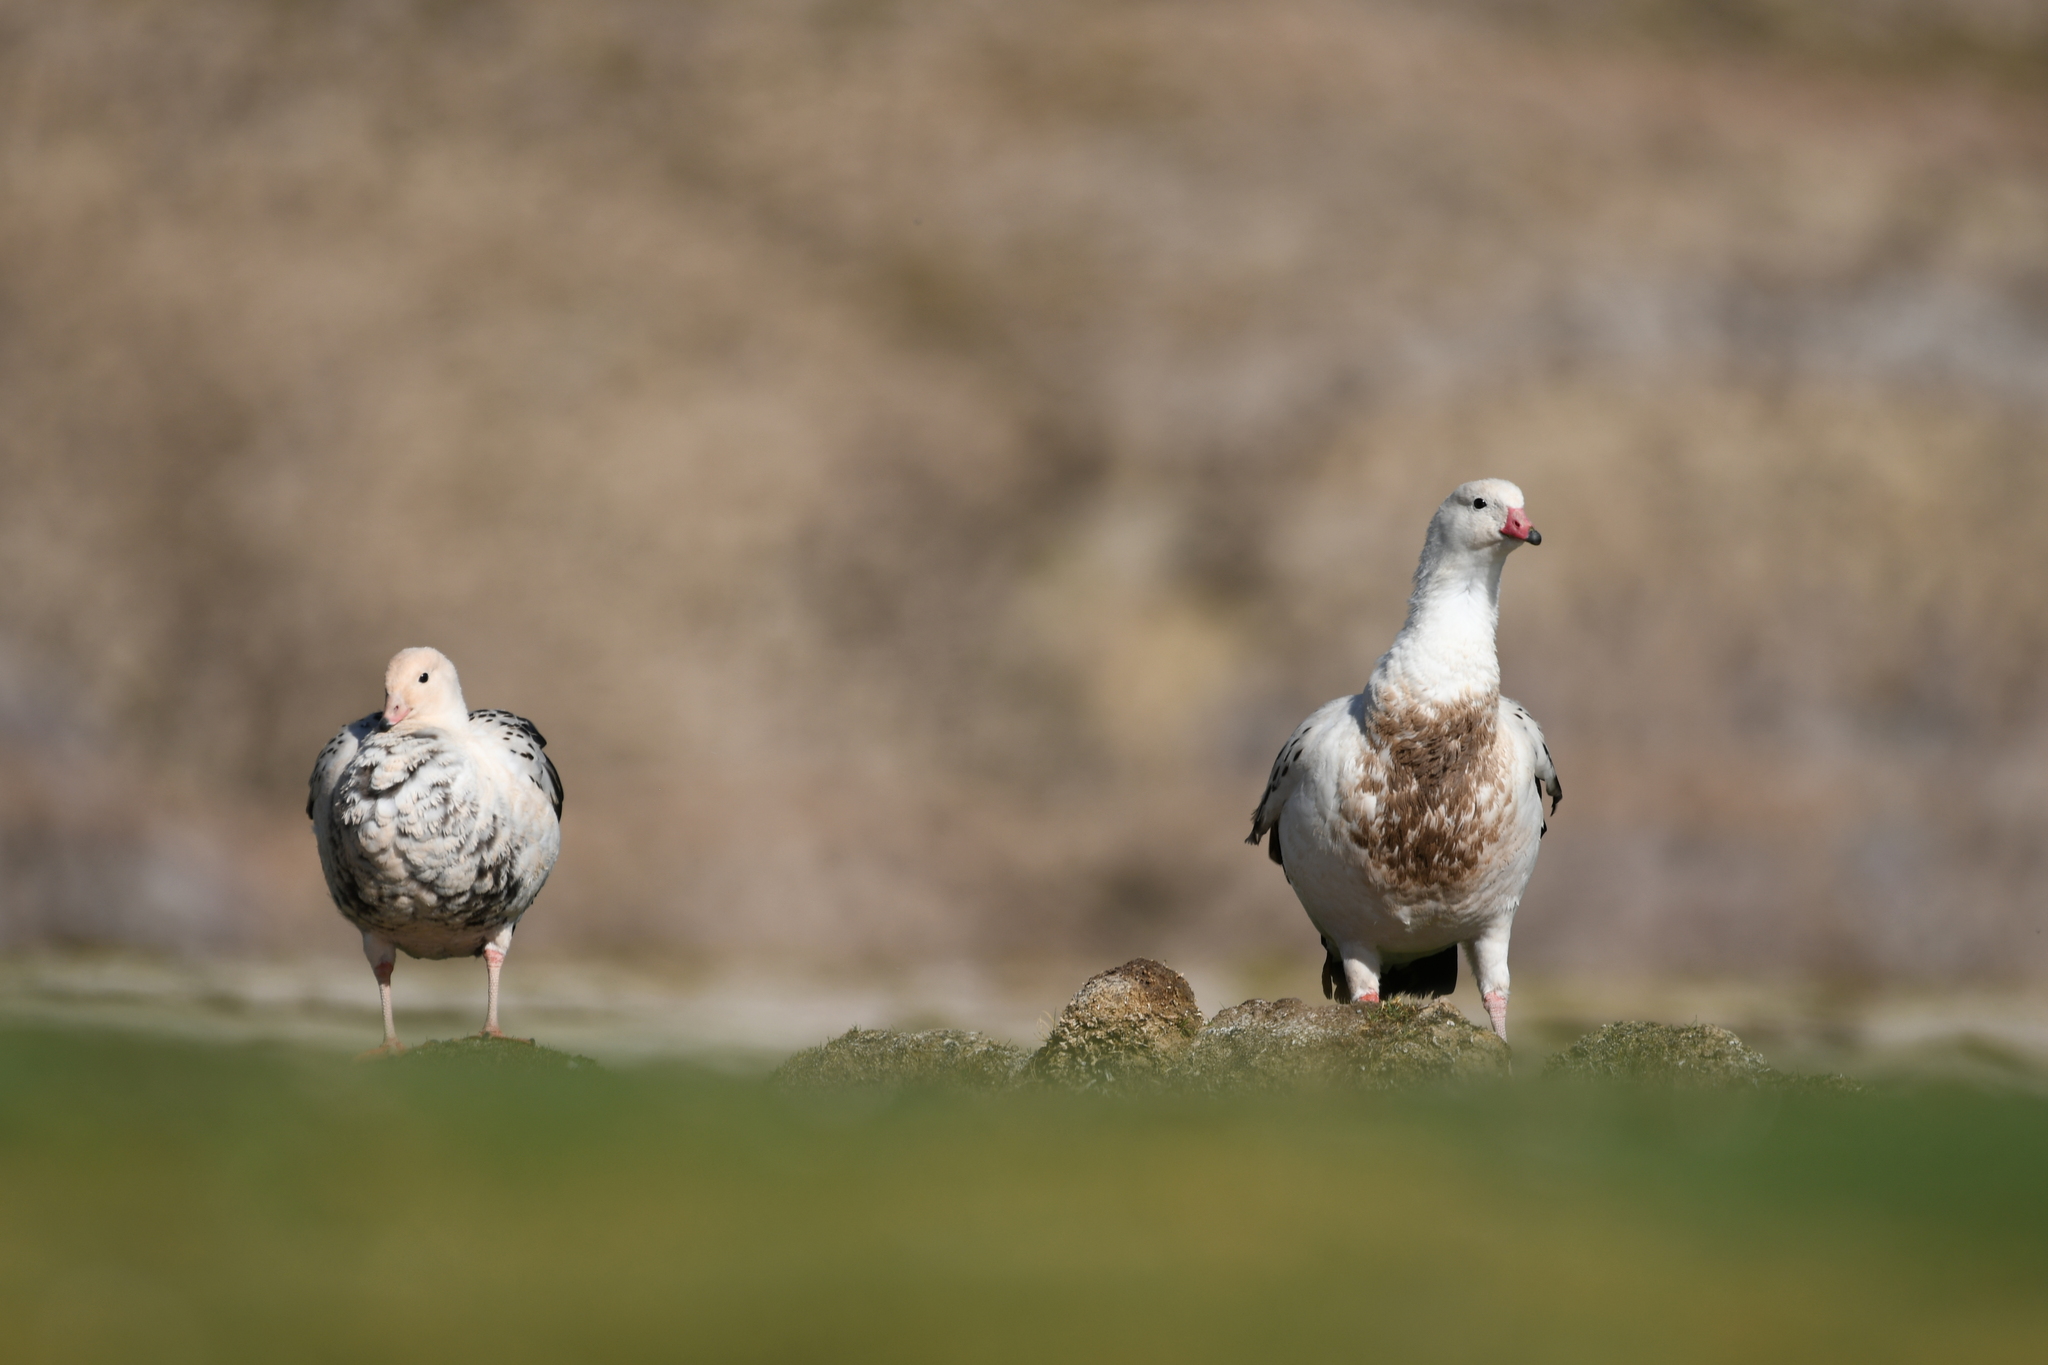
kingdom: Animalia
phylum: Chordata
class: Aves
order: Anseriformes
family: Anatidae
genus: Chloephaga
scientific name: Chloephaga melanoptera
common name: Andean goose
